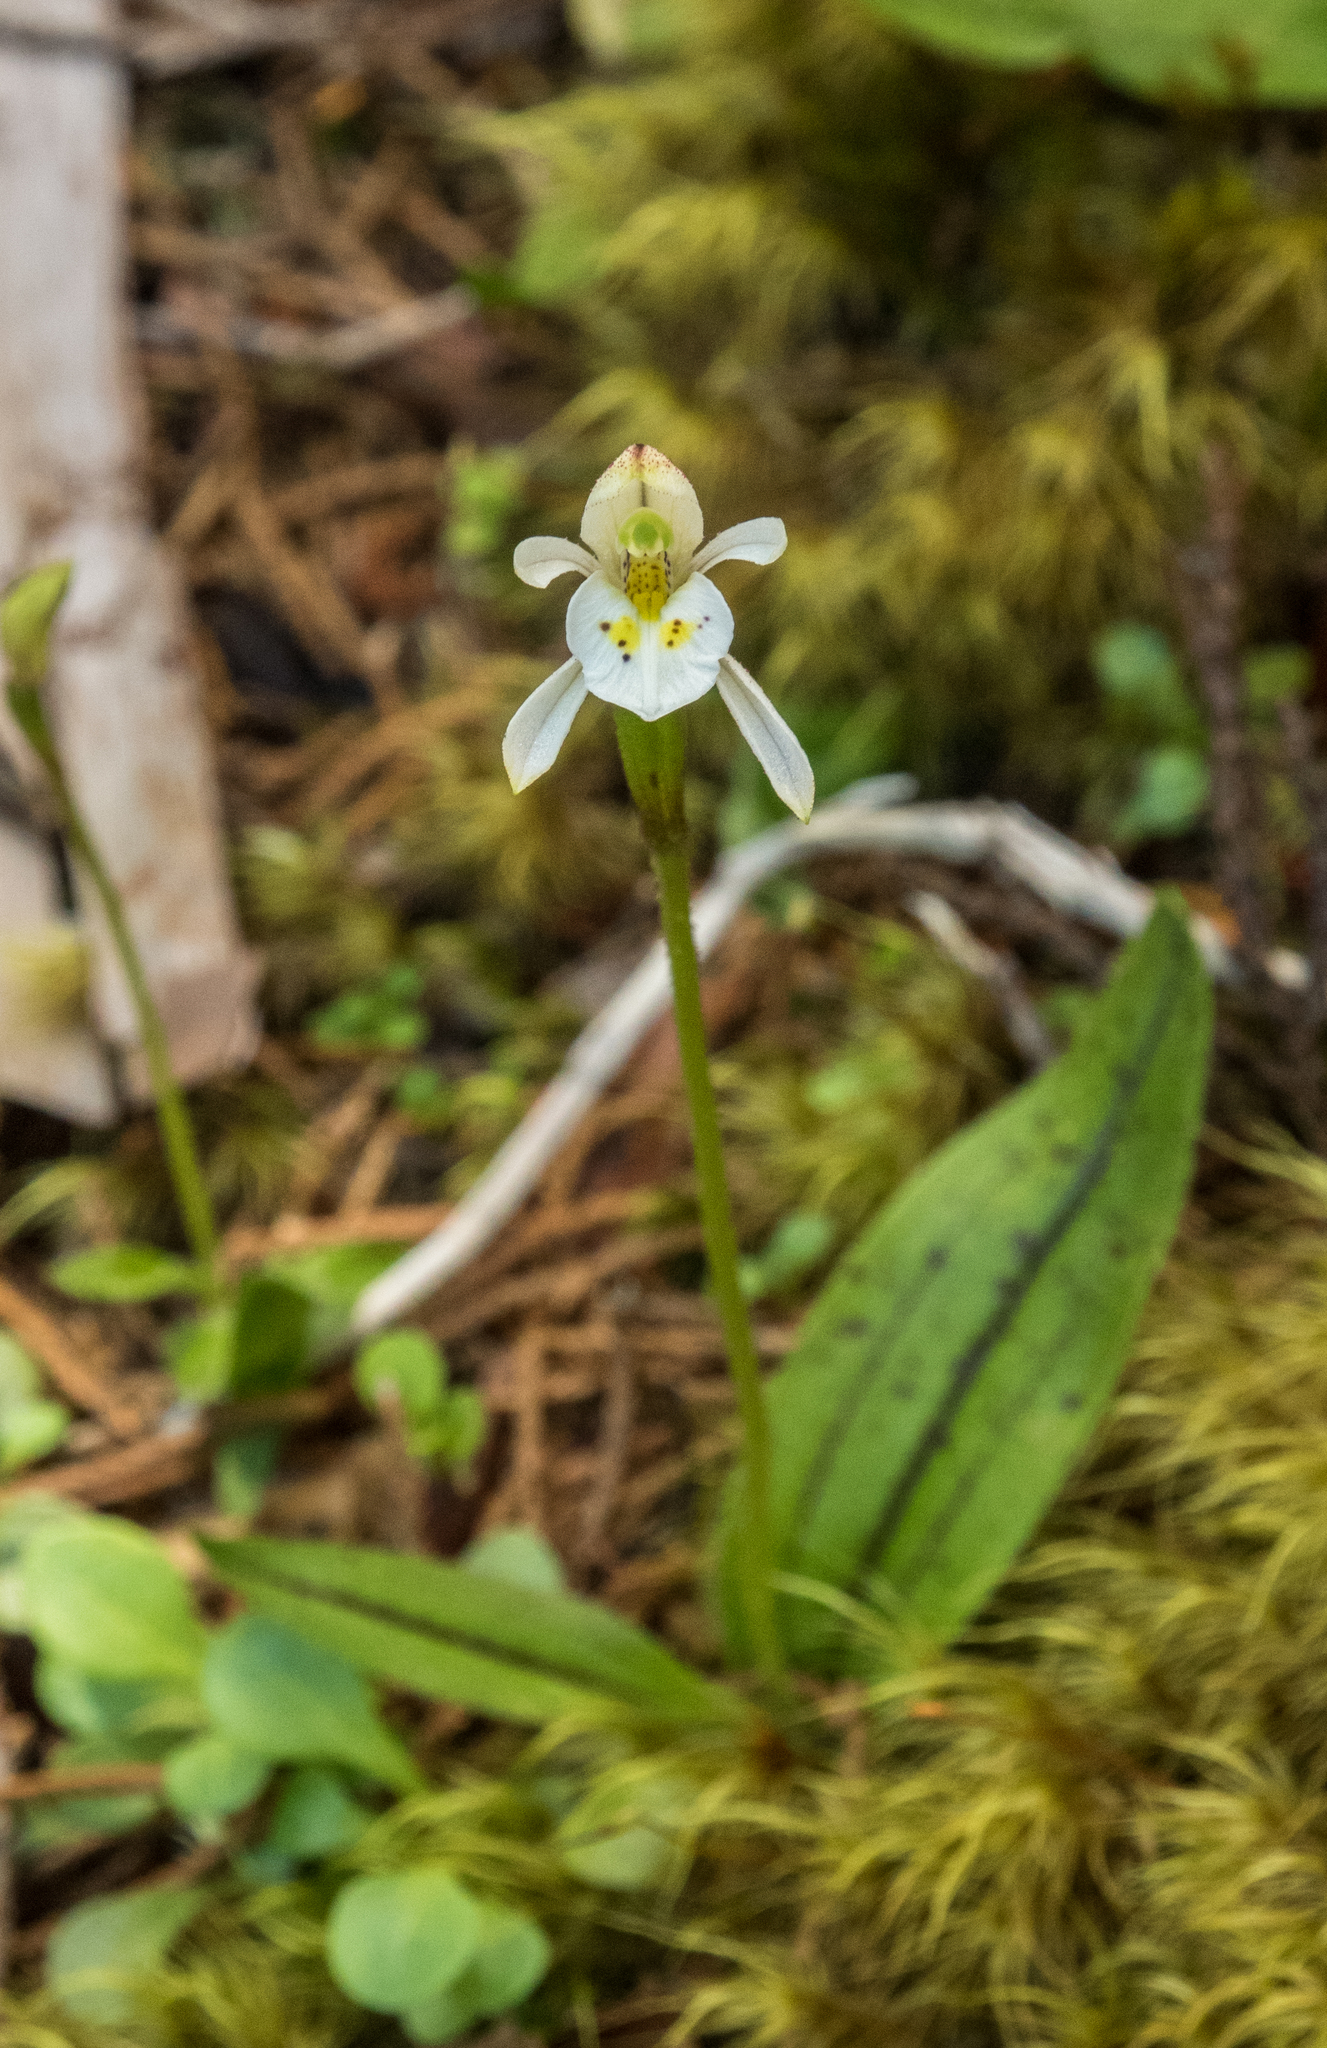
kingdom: Plantae
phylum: Tracheophyta
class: Liliopsida
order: Asparagales
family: Orchidaceae
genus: Aporostylis
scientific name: Aporostylis bifolia
